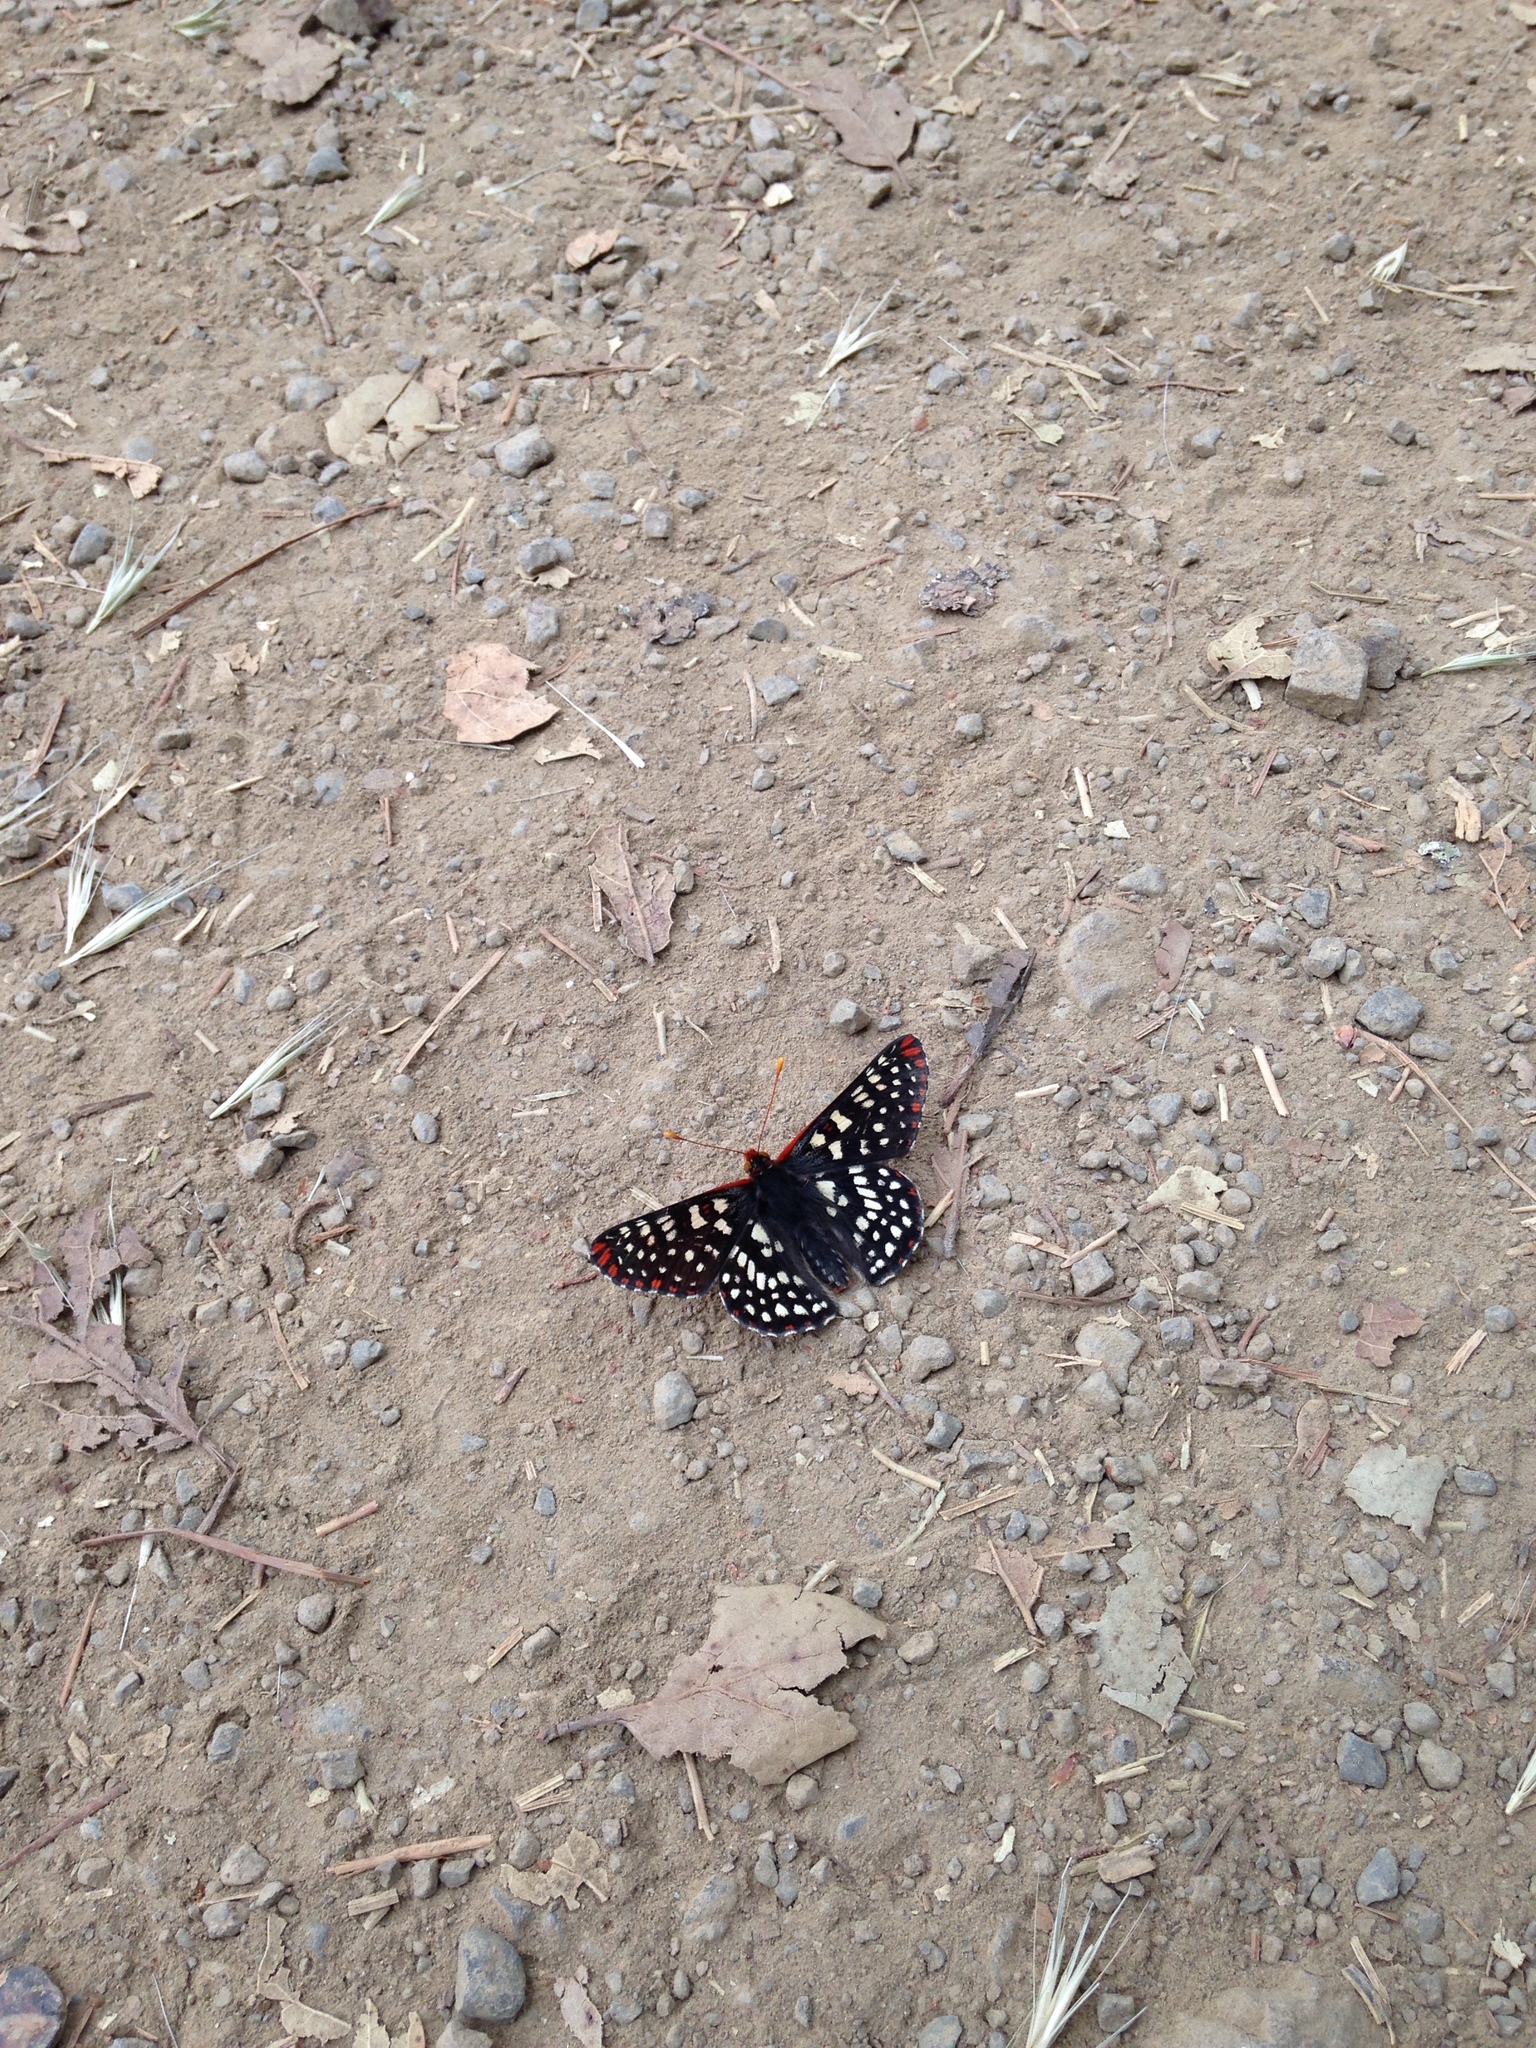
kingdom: Animalia
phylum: Arthropoda
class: Insecta
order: Lepidoptera
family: Nymphalidae
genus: Occidryas
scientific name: Occidryas chalcedona
